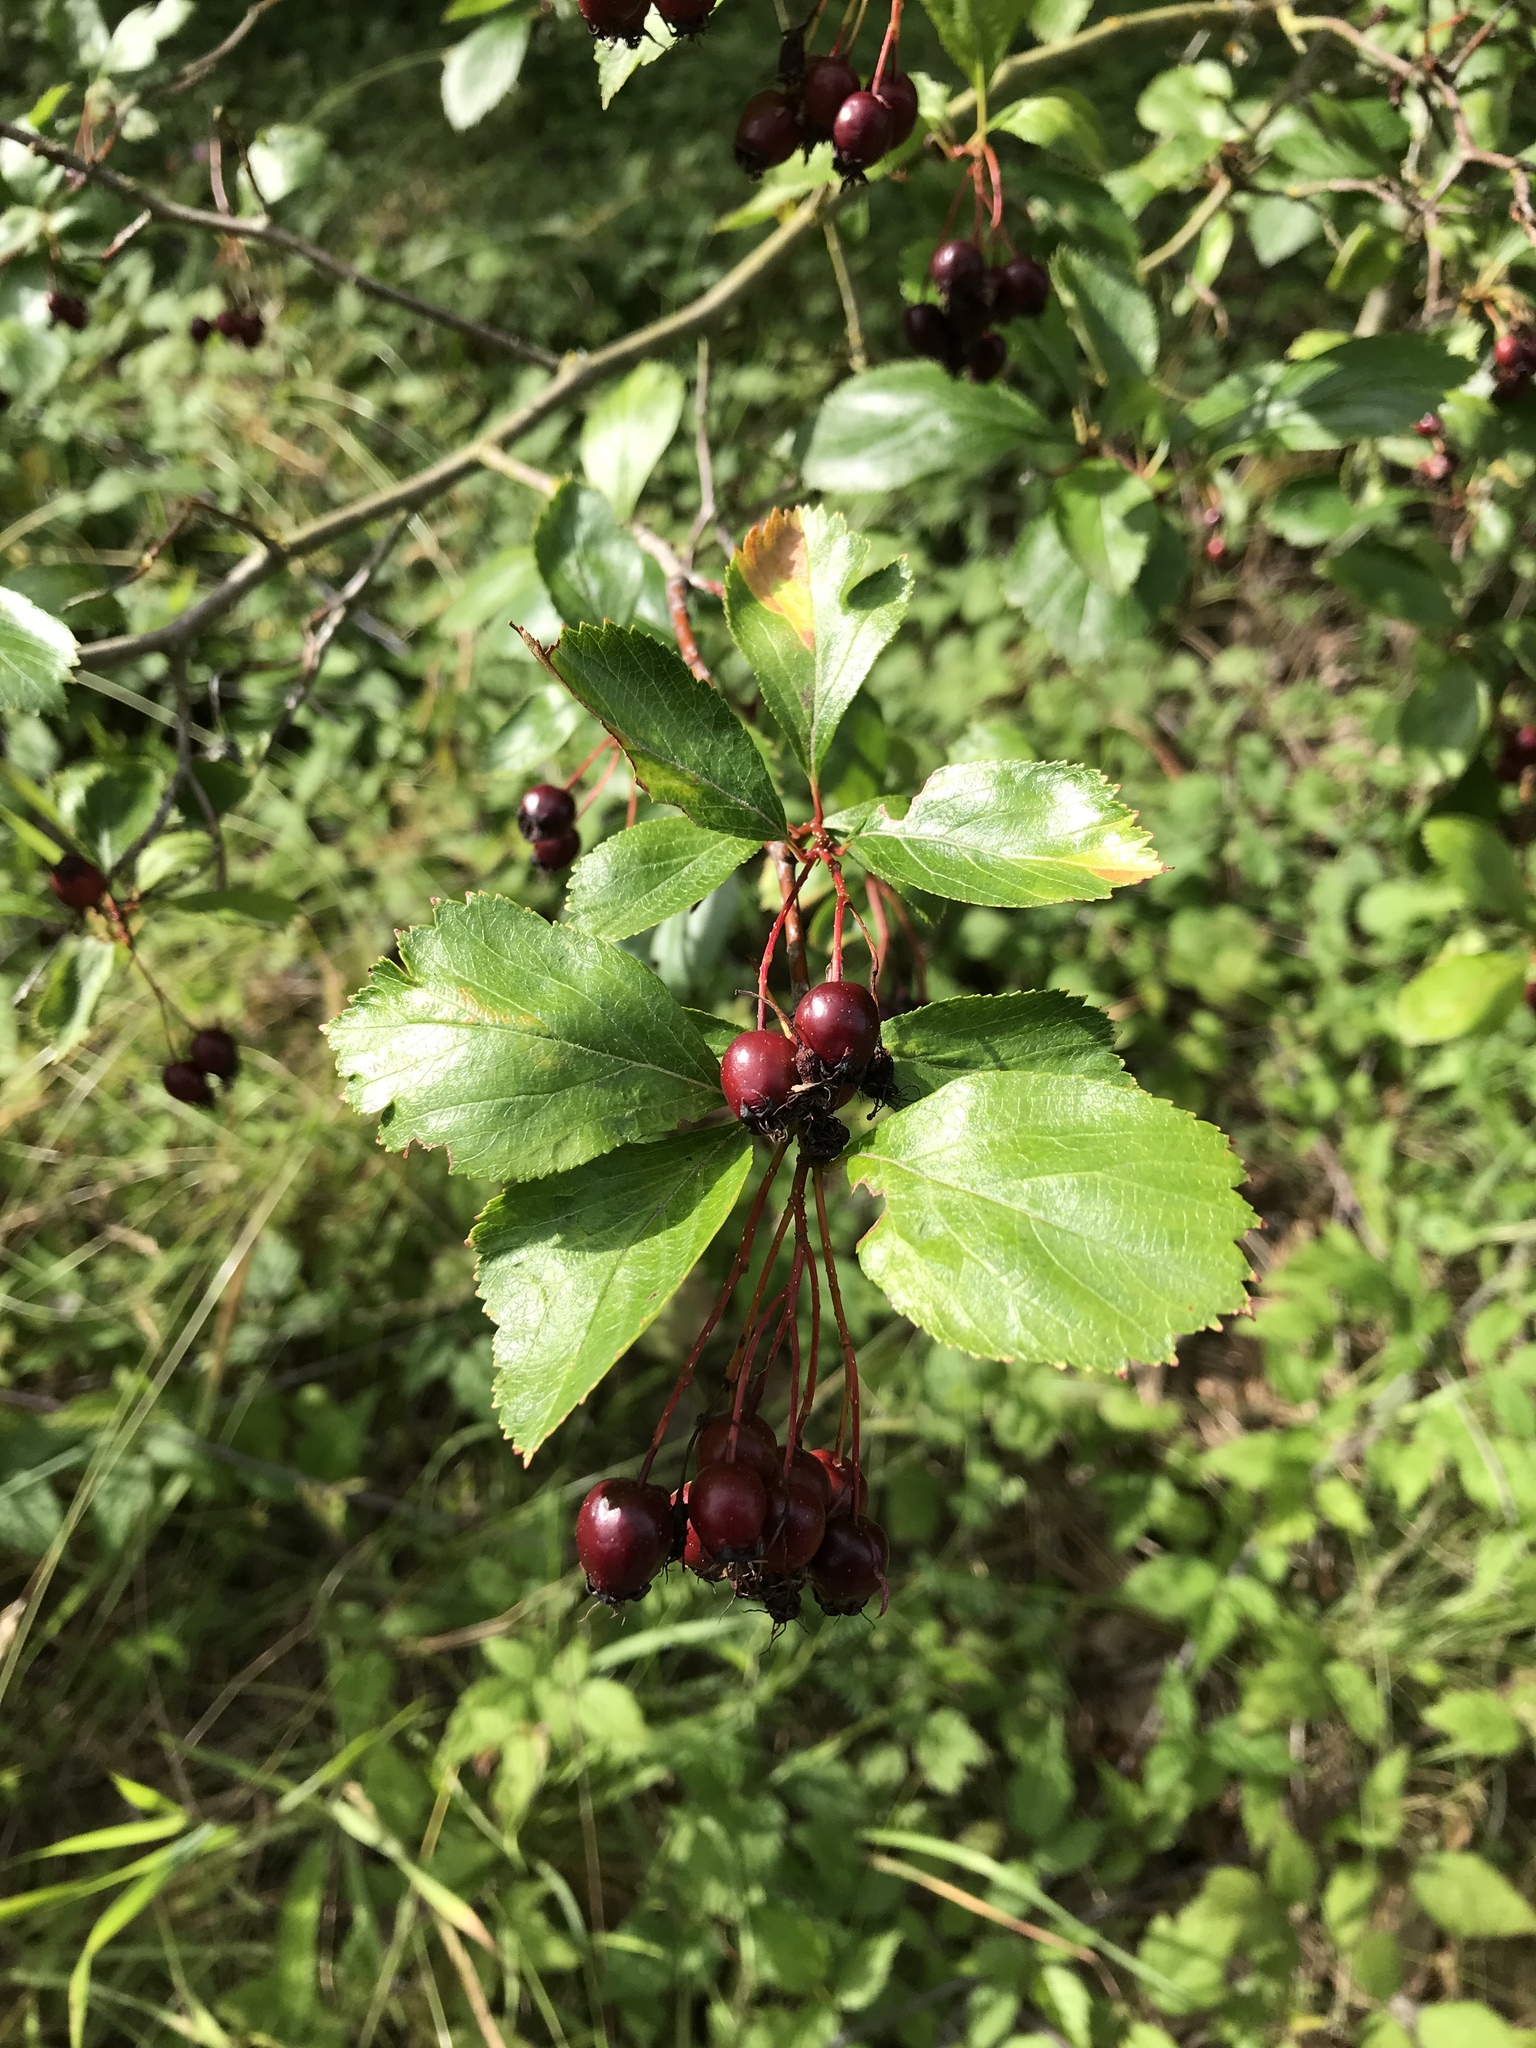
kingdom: Plantae
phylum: Tracheophyta
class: Magnoliopsida
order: Rosales
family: Rosaceae
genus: Crataegus
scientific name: Crataegus douglasii
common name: Black hawthorn
